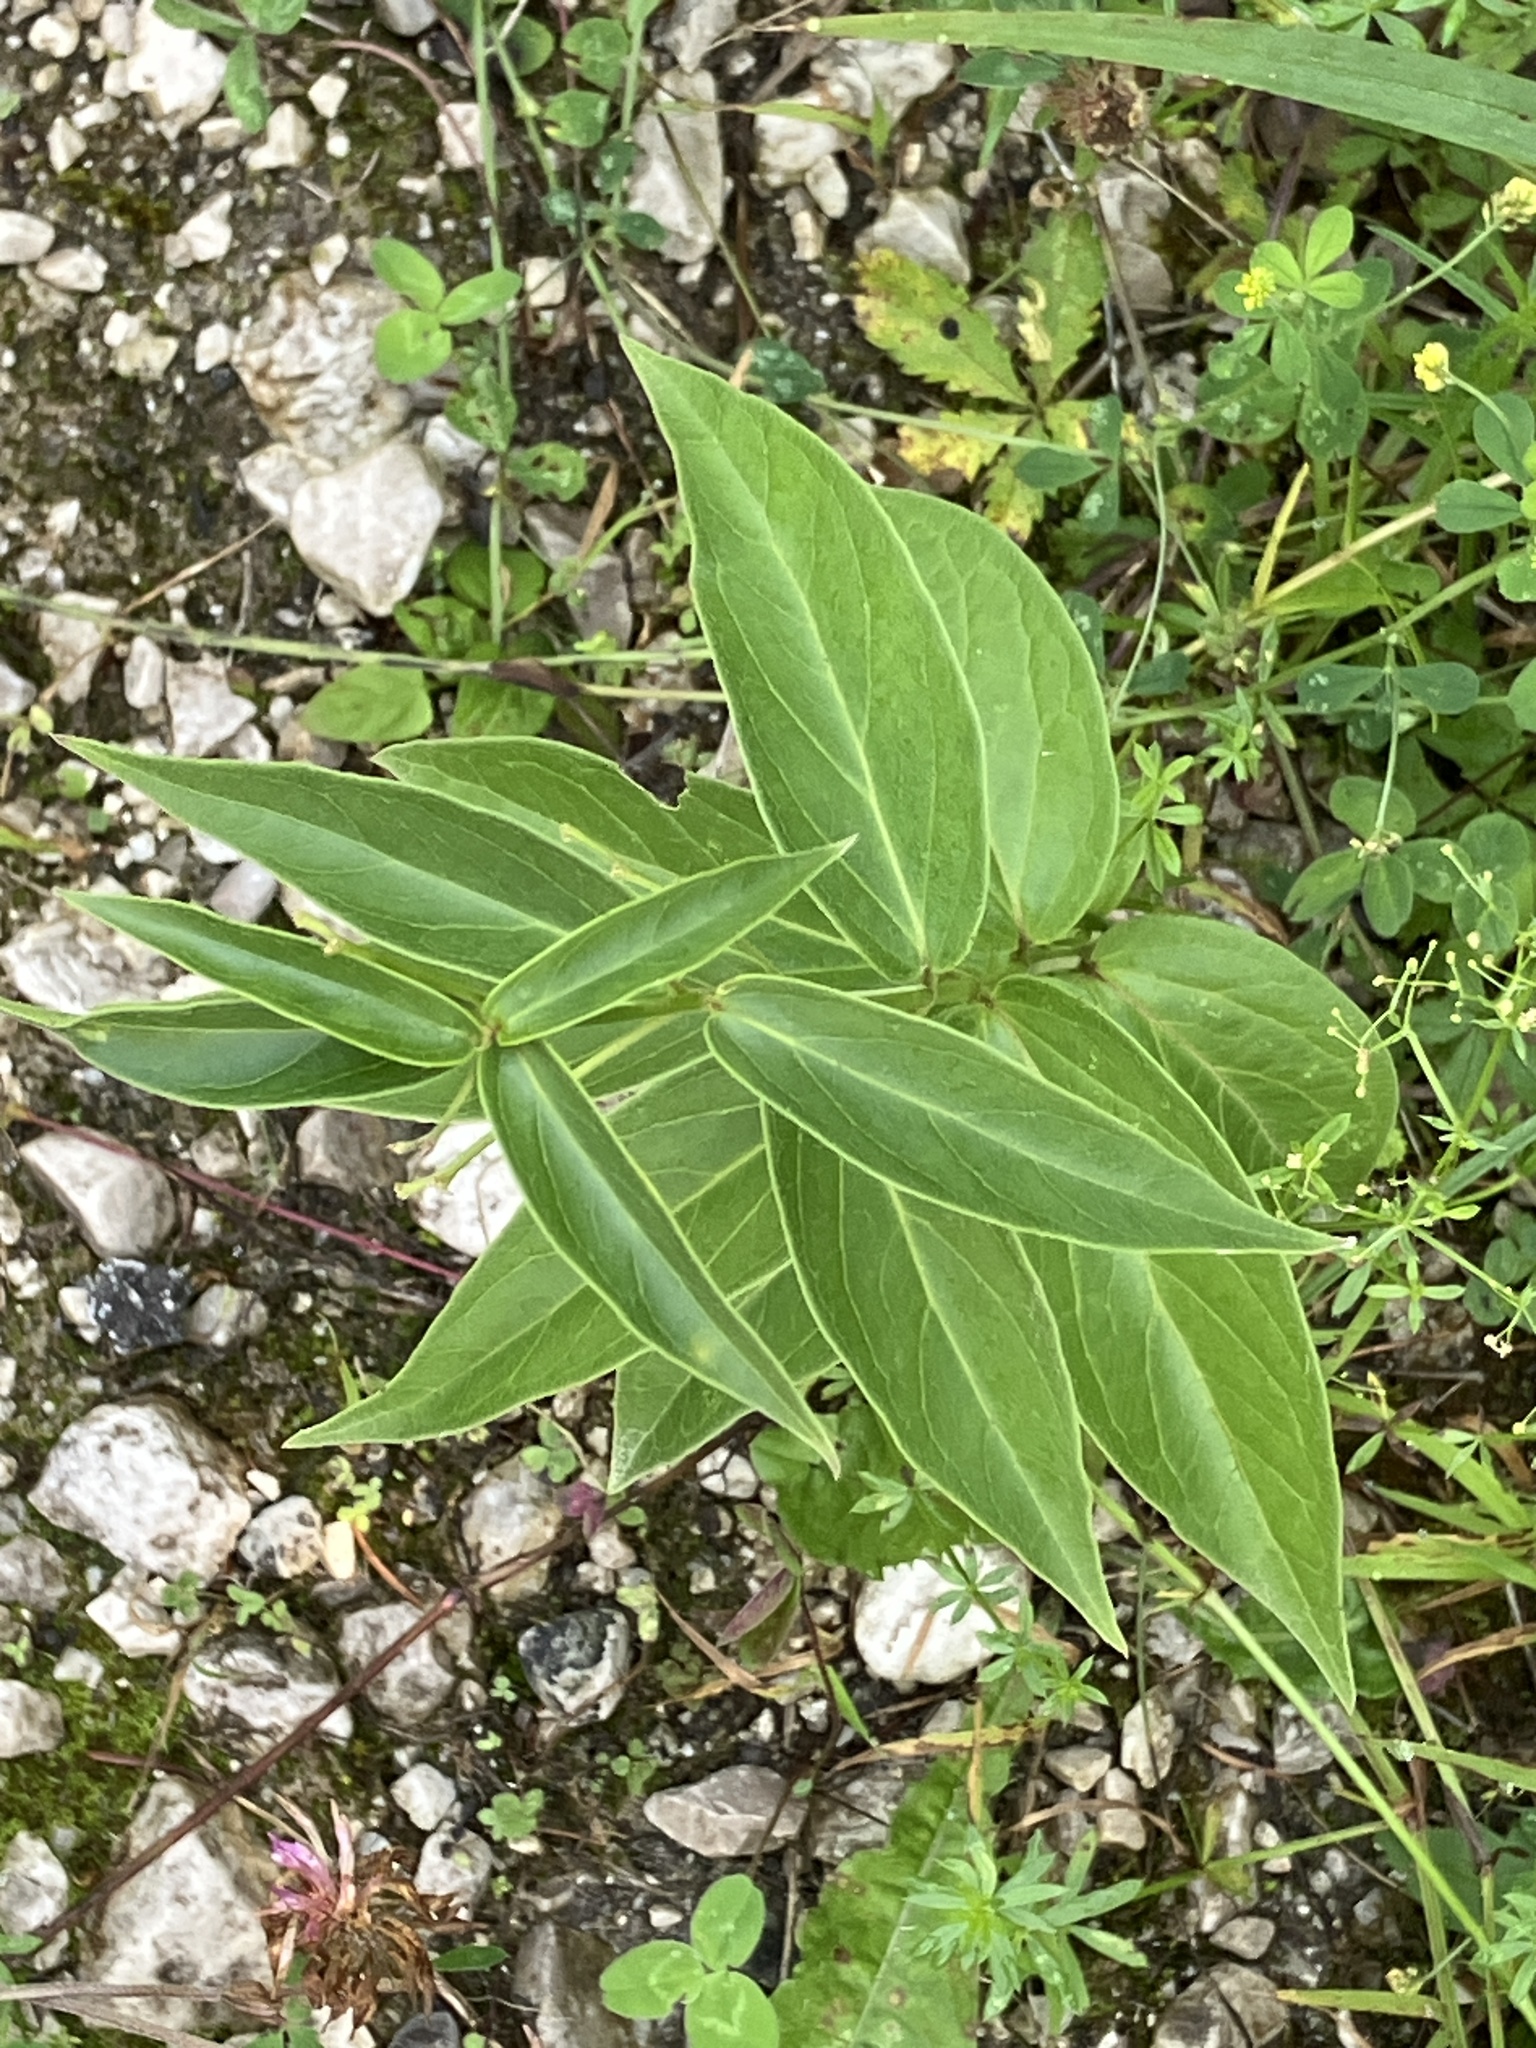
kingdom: Plantae
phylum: Tracheophyta
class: Magnoliopsida
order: Gentianales
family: Apocynaceae
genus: Vincetoxicum
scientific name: Vincetoxicum hirundinaria
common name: White swallowwort
